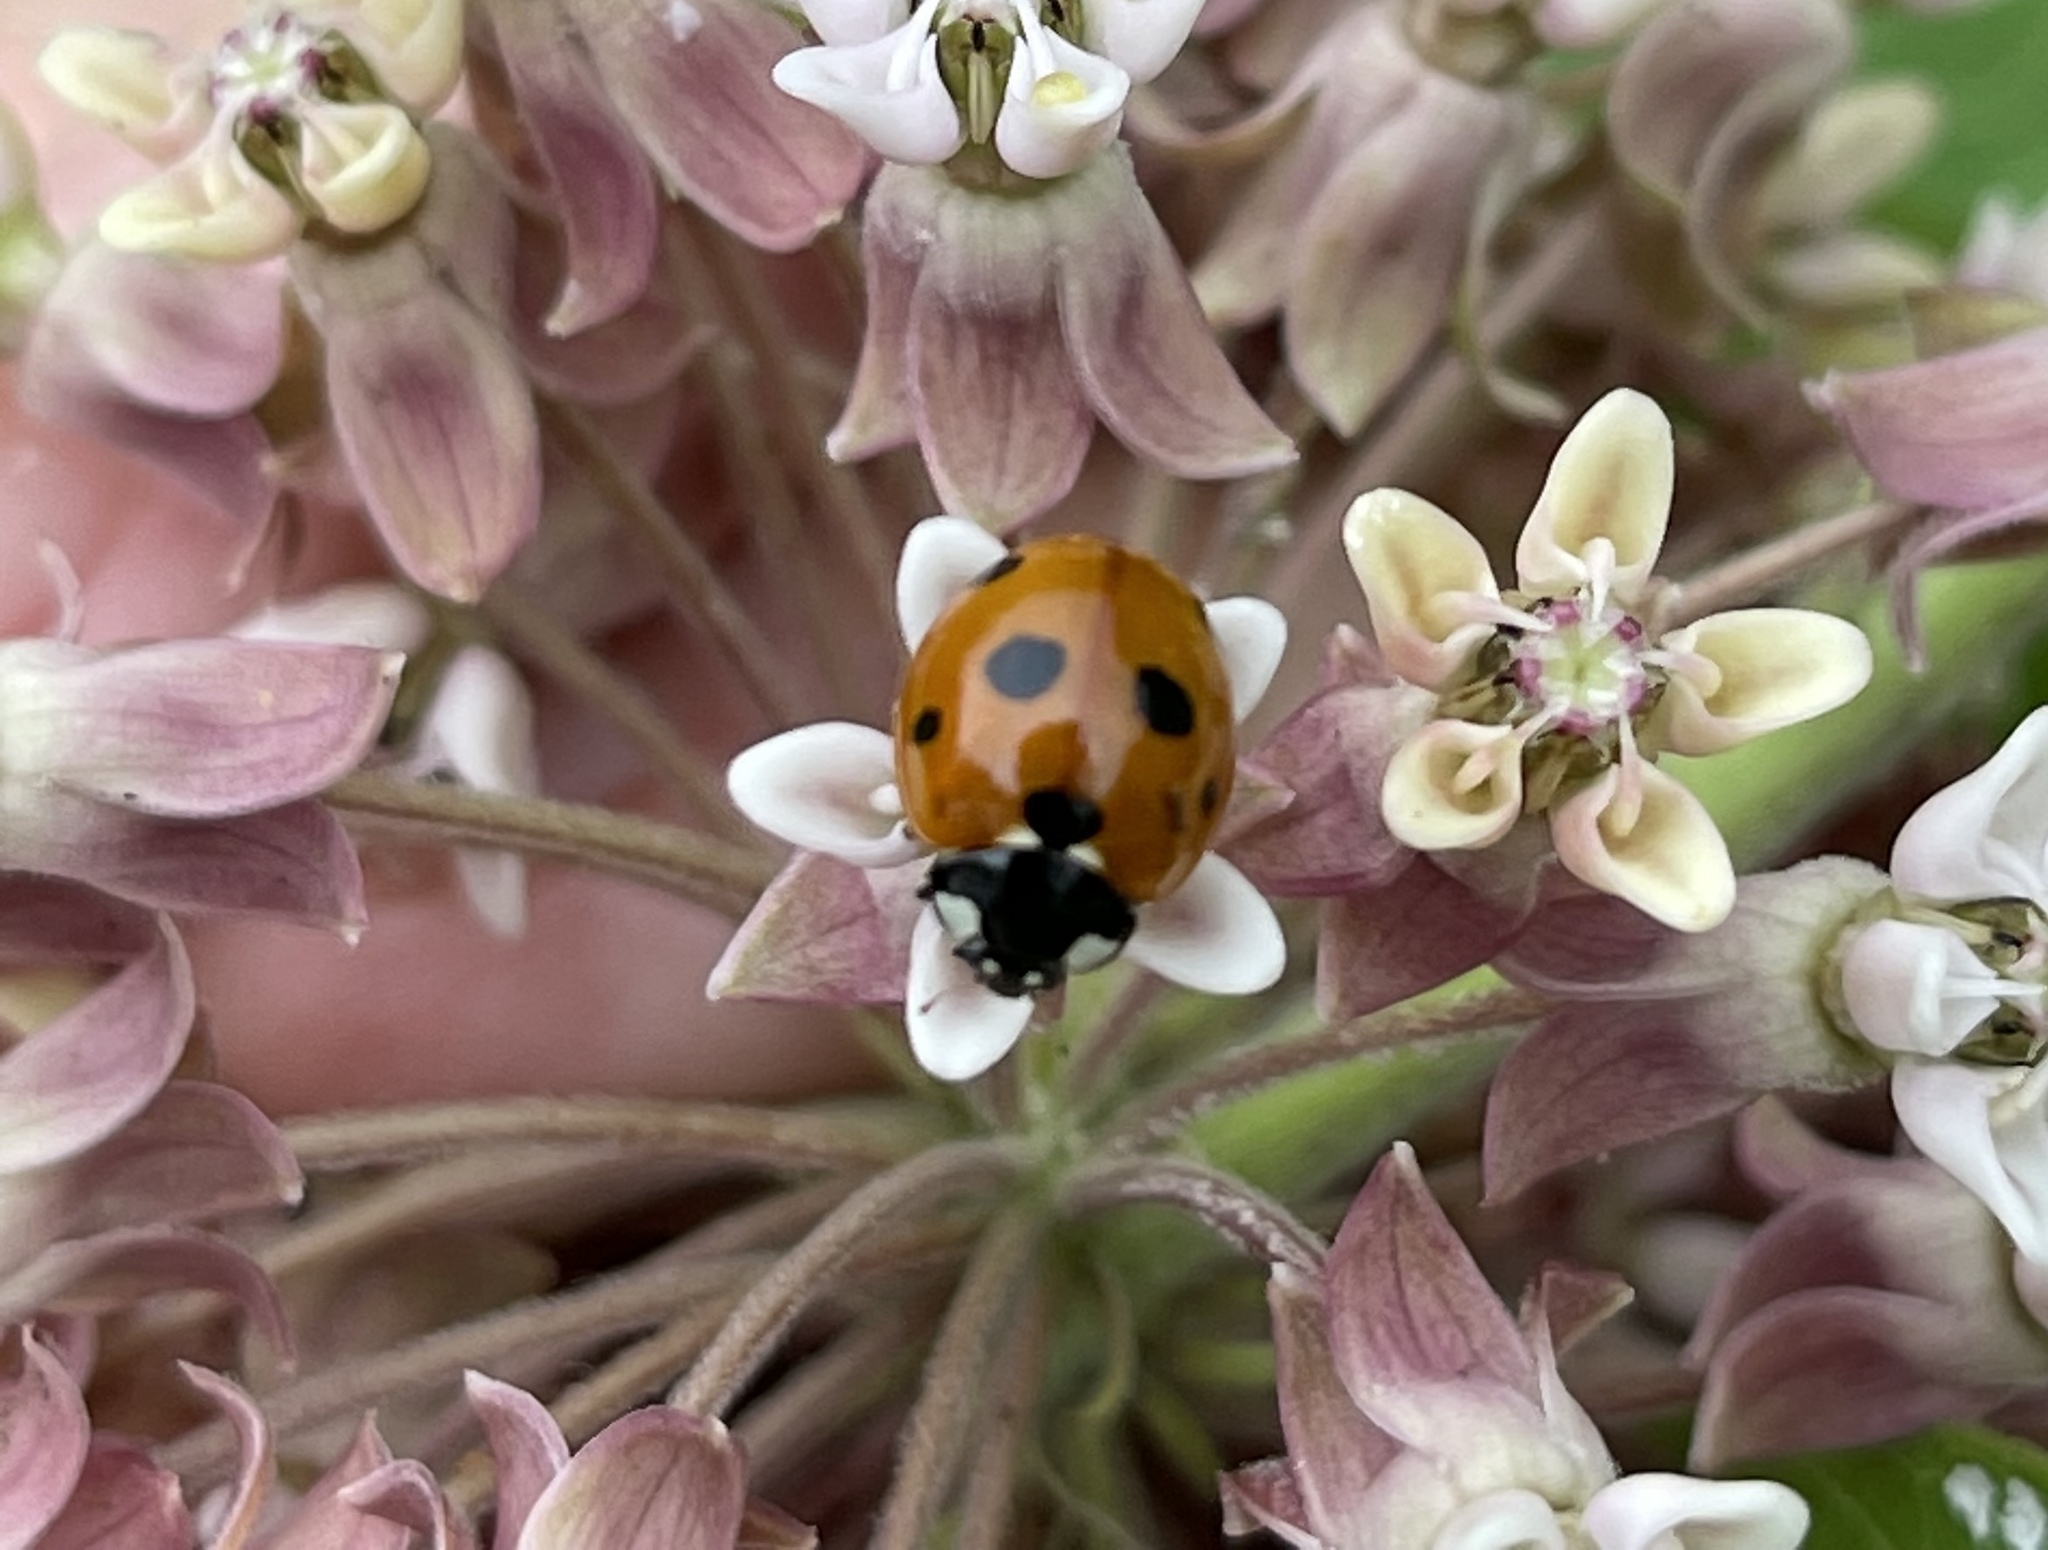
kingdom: Animalia
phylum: Arthropoda
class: Insecta
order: Coleoptera
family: Coccinellidae
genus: Coccinella
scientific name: Coccinella septempunctata
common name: Sevenspotted lady beetle
